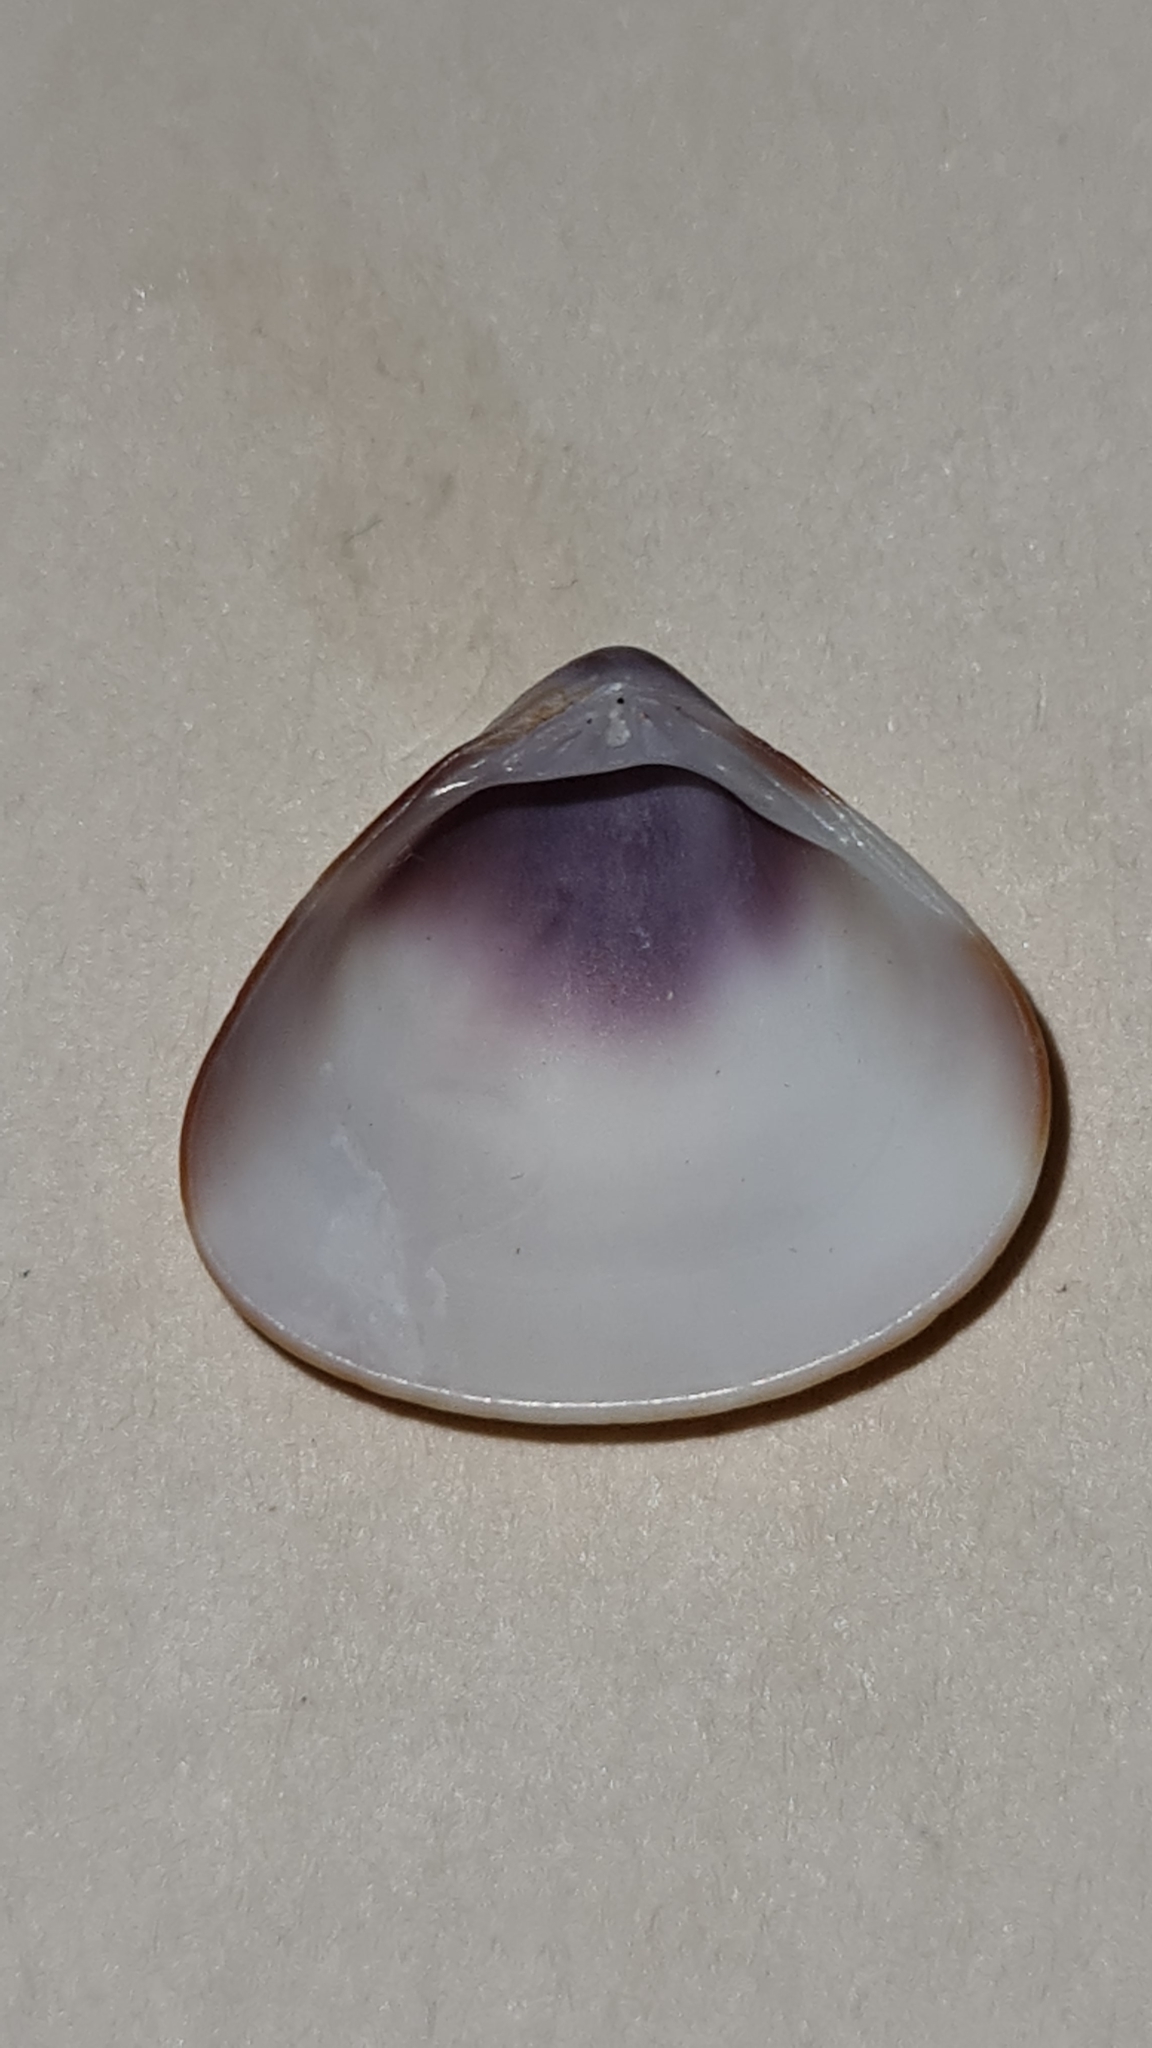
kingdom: Animalia
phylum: Mollusca
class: Bivalvia
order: Venerida
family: Veneridae
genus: Tivela
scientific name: Tivela mactroides
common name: Trigonal tivela
